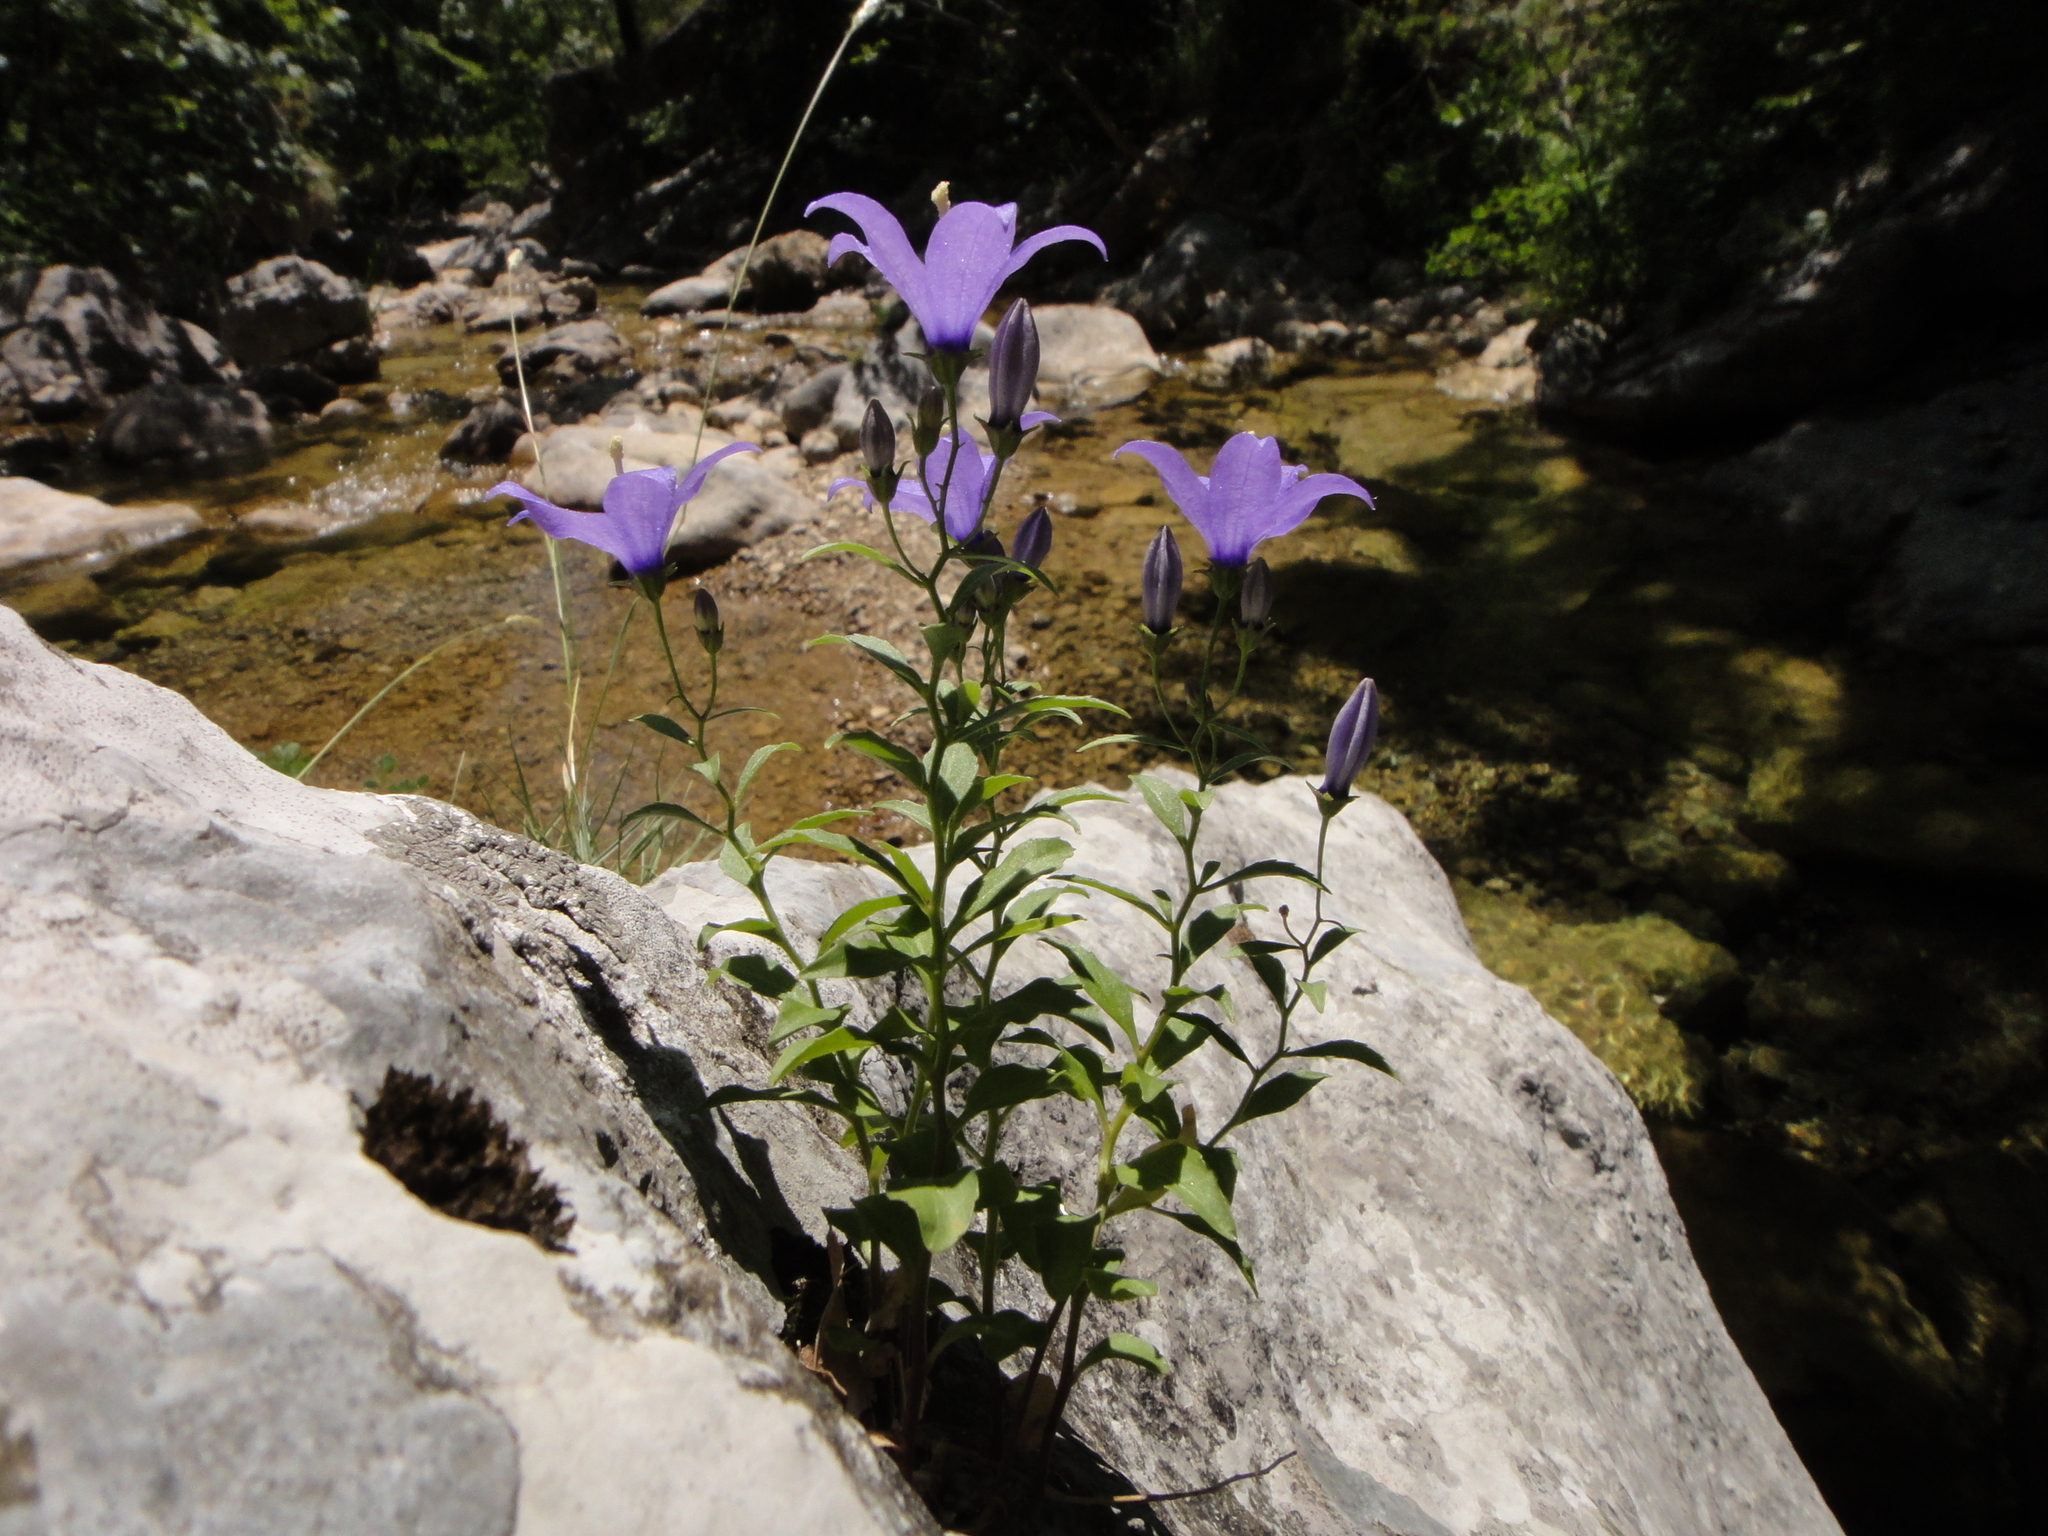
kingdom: Plantae
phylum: Tracheophyta
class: Magnoliopsida
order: Asterales
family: Campanulaceae
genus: Campanula
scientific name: Campanula waldsteiniana
